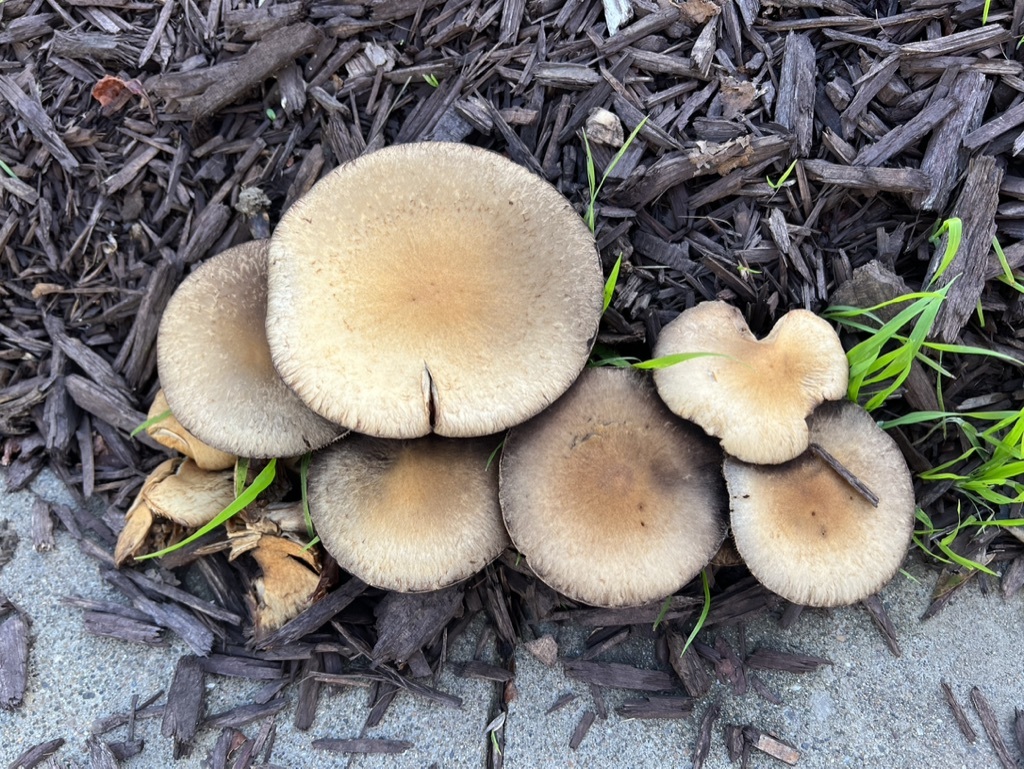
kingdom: Fungi
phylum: Basidiomycota
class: Agaricomycetes
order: Agaricales
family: Psathyrellaceae
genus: Lacrymaria
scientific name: Lacrymaria lacrymabunda
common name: Weeping widow
